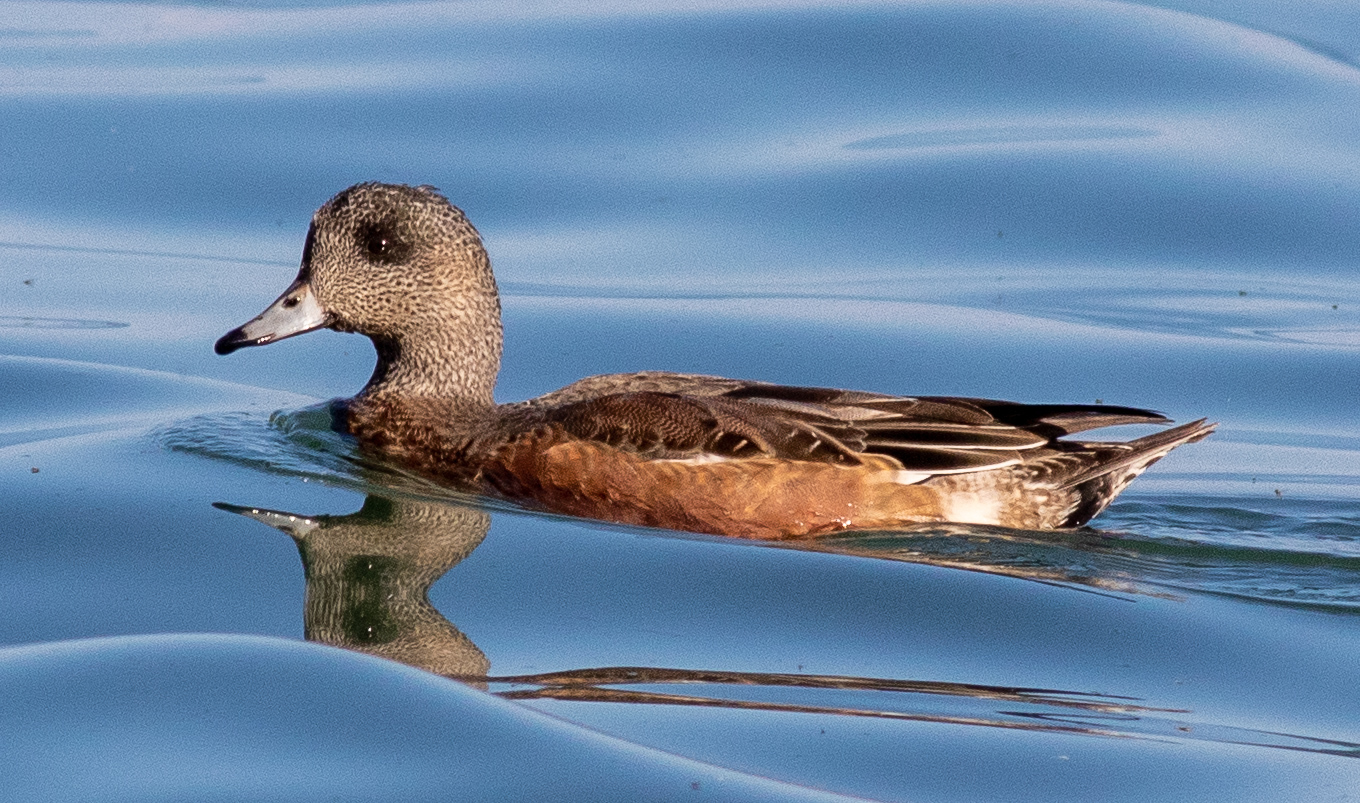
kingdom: Animalia
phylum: Chordata
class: Aves
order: Anseriformes
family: Anatidae
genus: Mareca
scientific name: Mareca americana
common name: American wigeon
